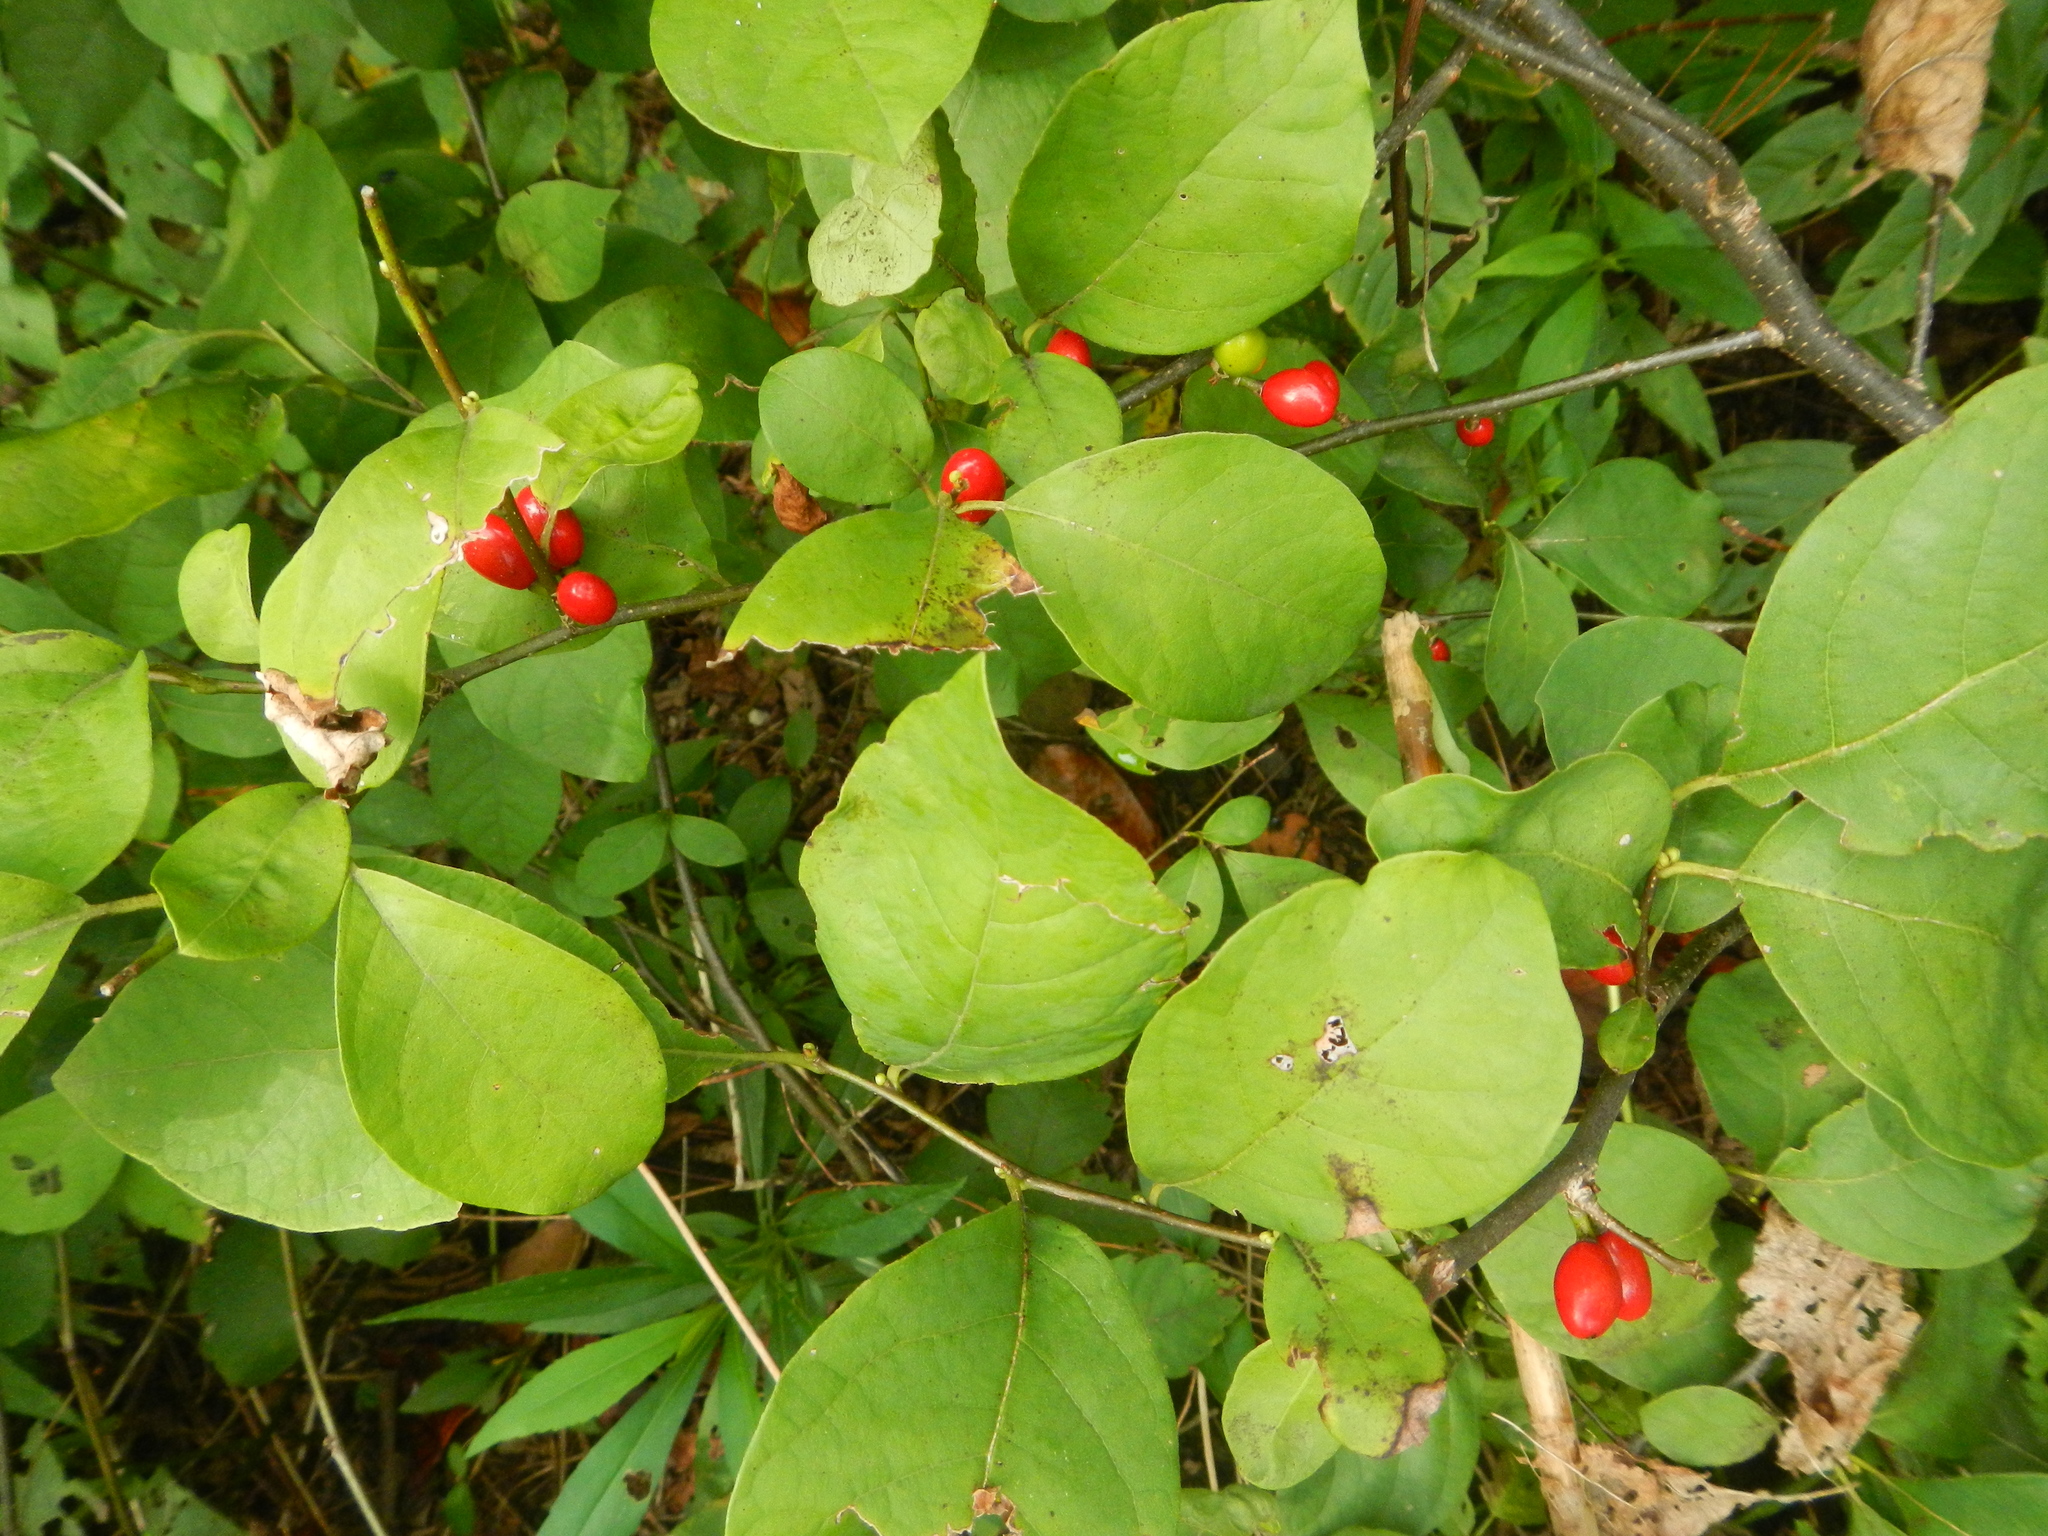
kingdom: Plantae
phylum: Tracheophyta
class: Magnoliopsida
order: Laurales
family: Lauraceae
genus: Lindera
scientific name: Lindera benzoin
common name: Spicebush
